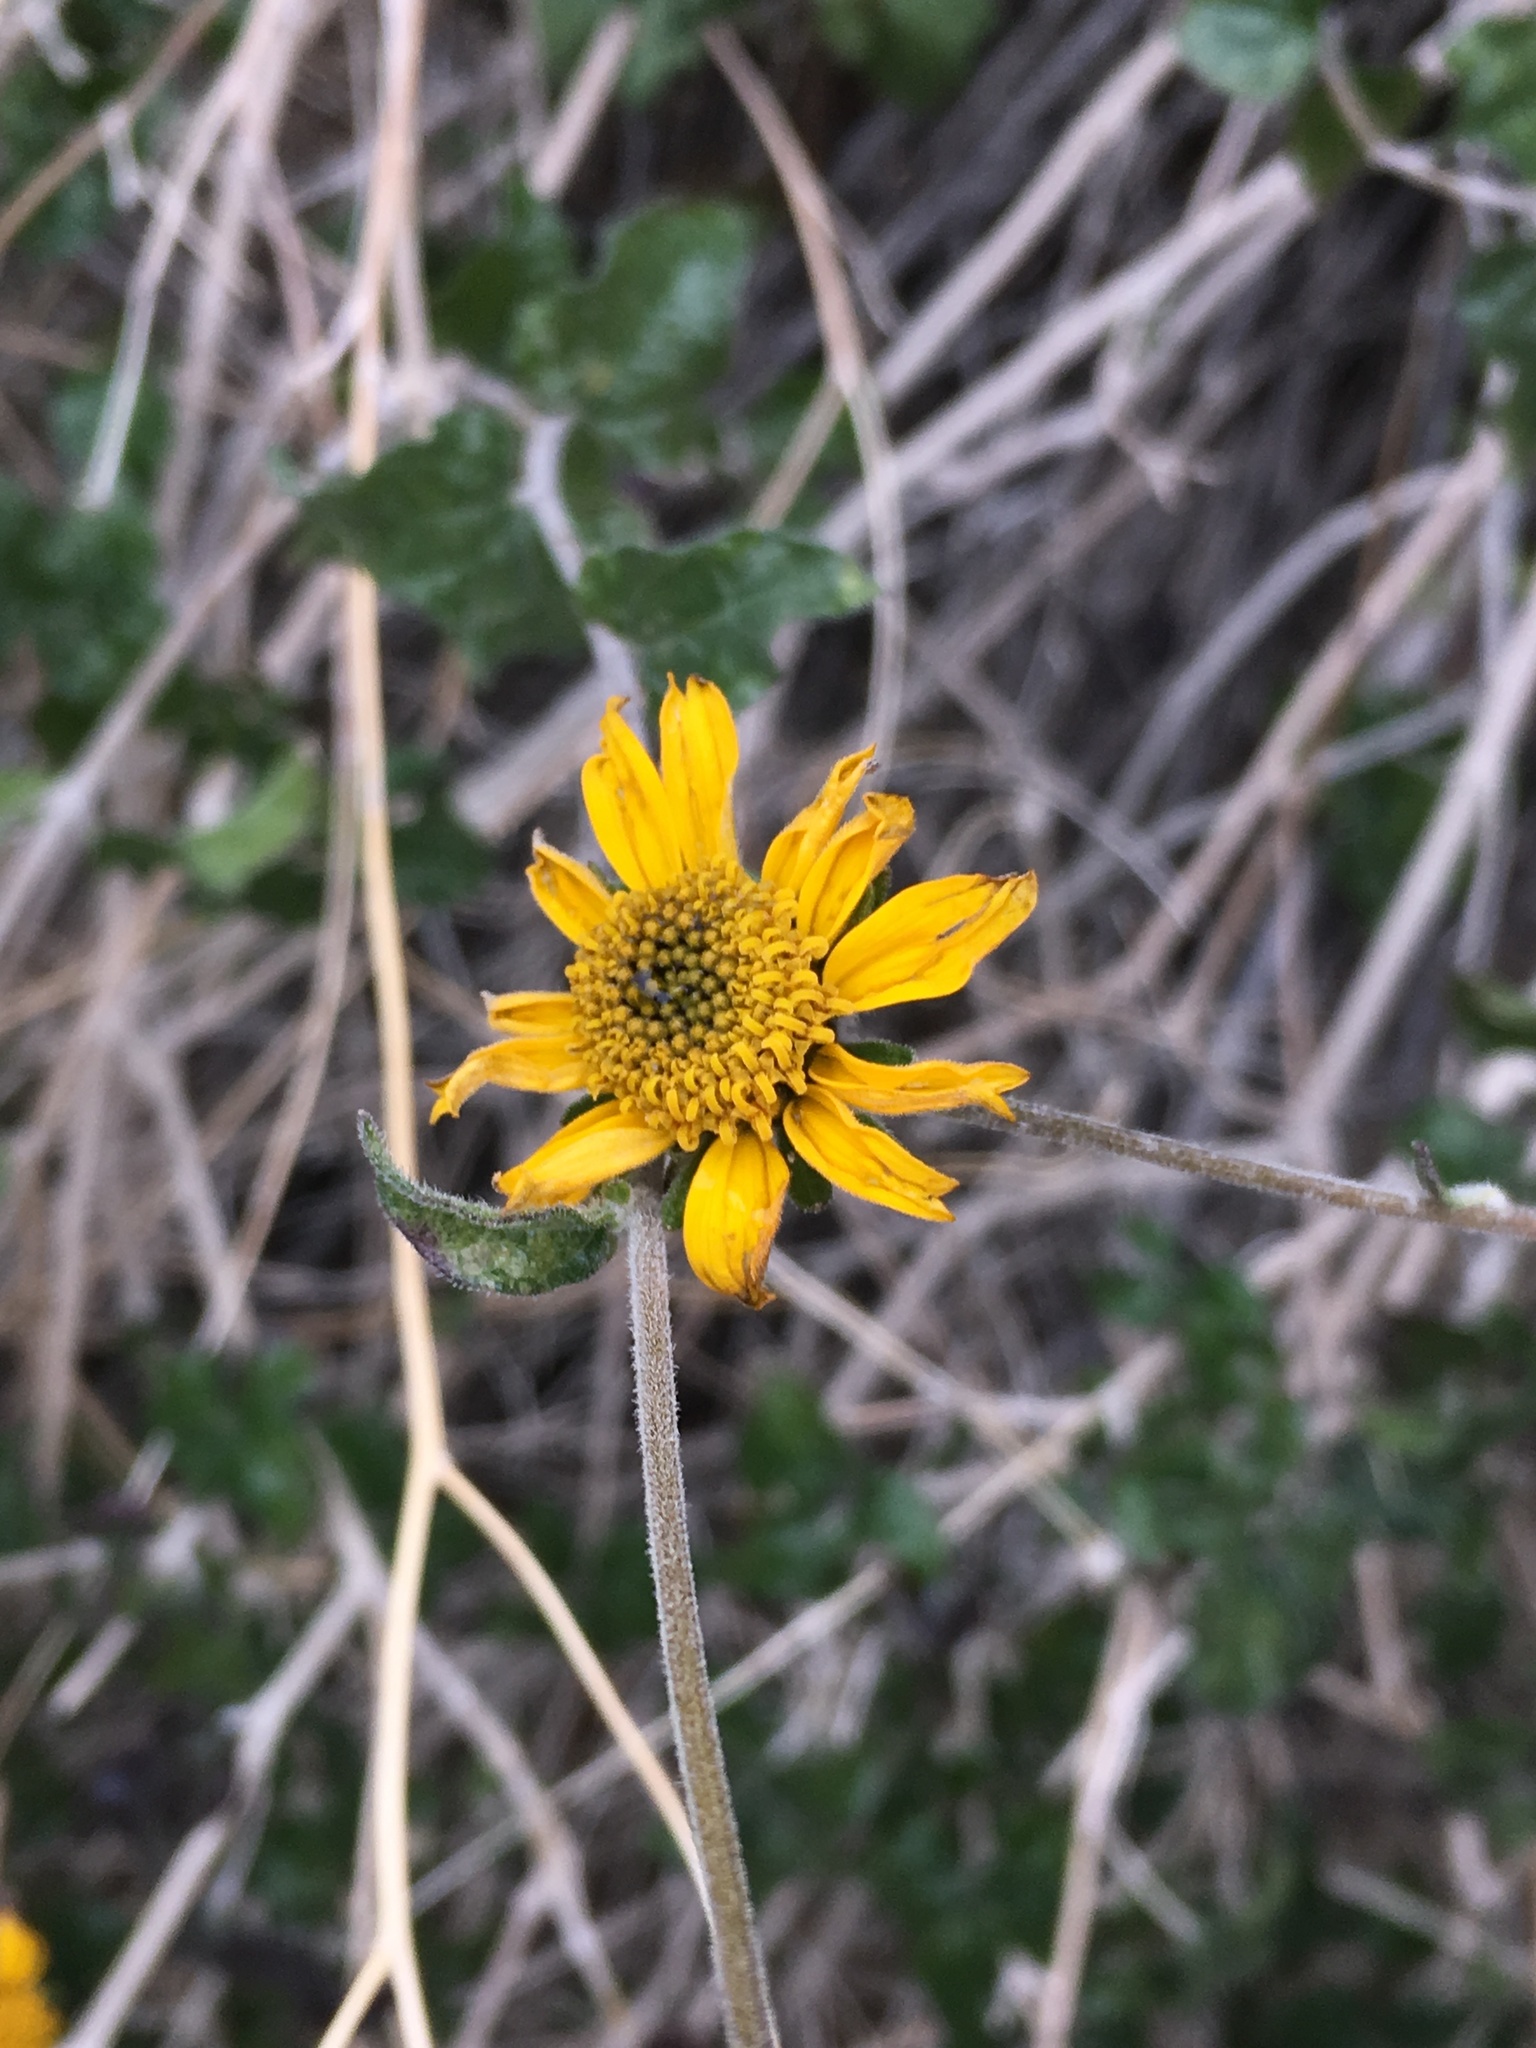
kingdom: Plantae
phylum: Tracheophyta
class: Magnoliopsida
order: Asterales
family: Asteraceae
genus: Bahiopsis
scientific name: Bahiopsis parishii
